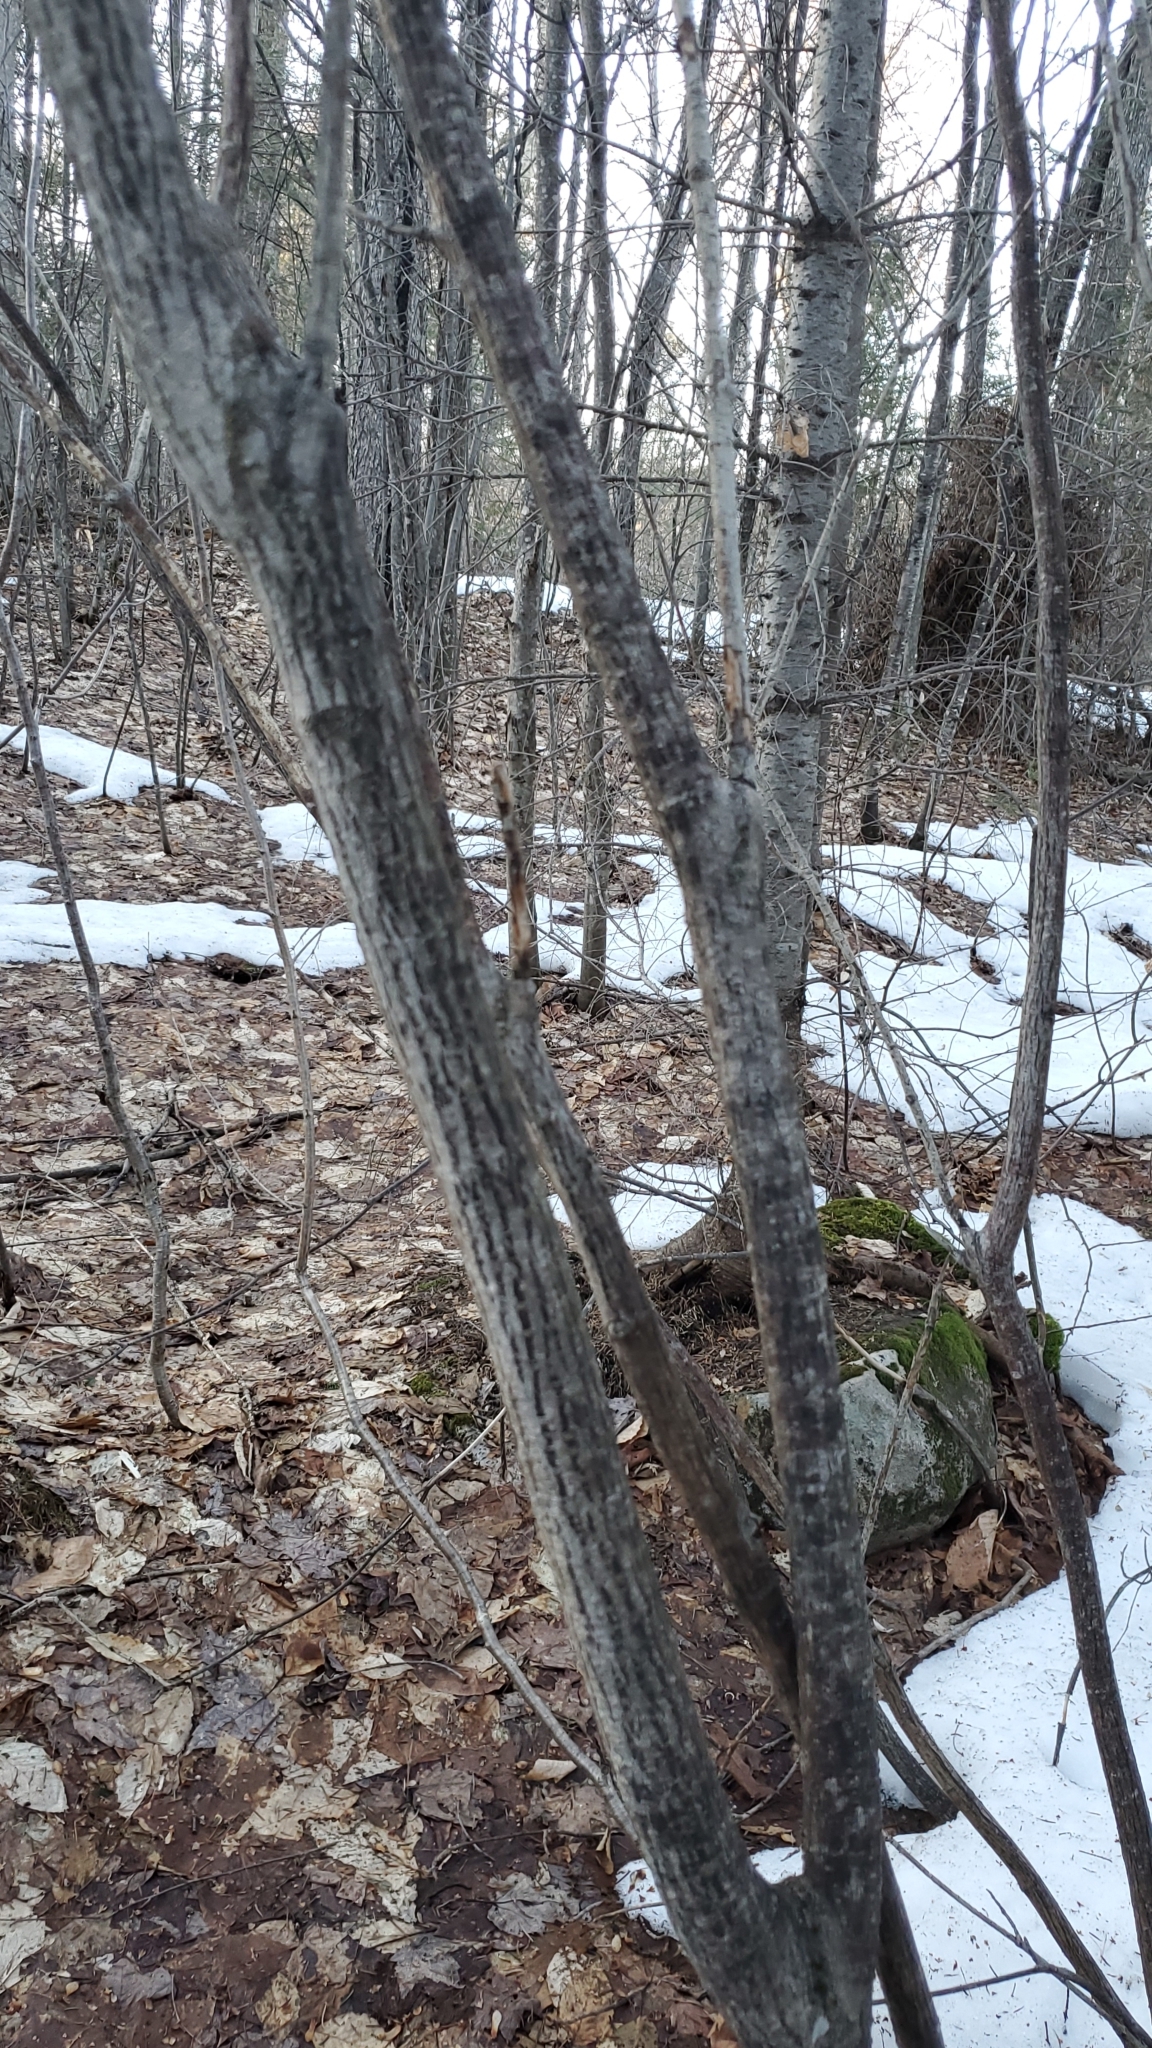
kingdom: Plantae
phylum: Tracheophyta
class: Magnoliopsida
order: Sapindales
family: Sapindaceae
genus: Acer
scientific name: Acer pensylvanicum
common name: Moosewood
